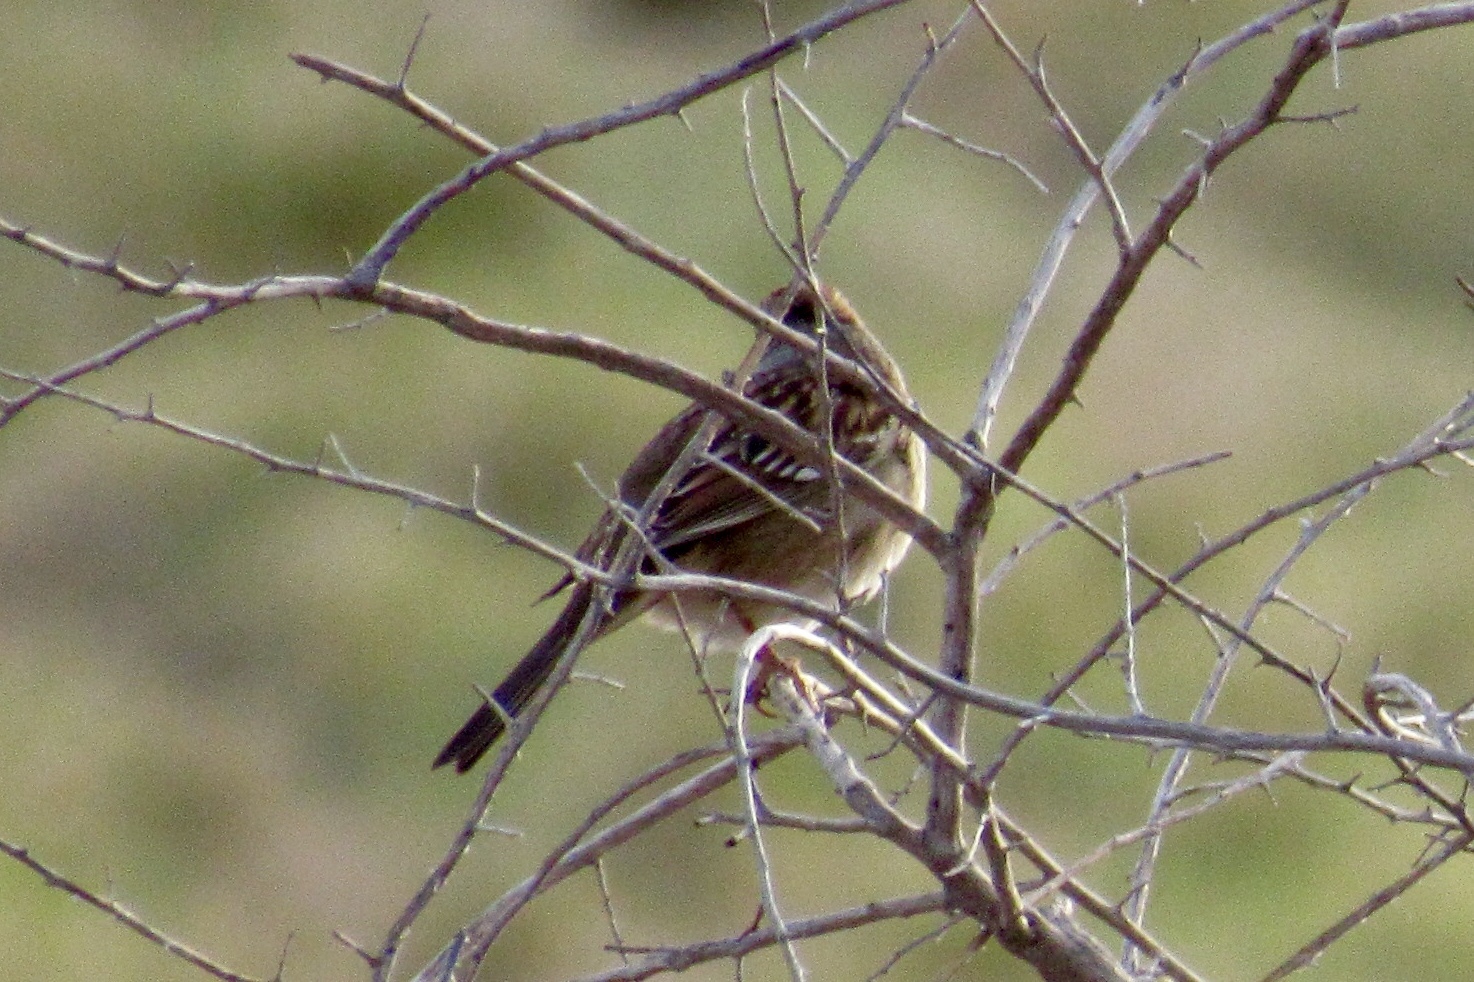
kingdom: Animalia
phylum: Chordata
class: Aves
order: Passeriformes
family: Passerellidae
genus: Zonotrichia
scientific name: Zonotrichia leucophrys
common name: White-crowned sparrow
